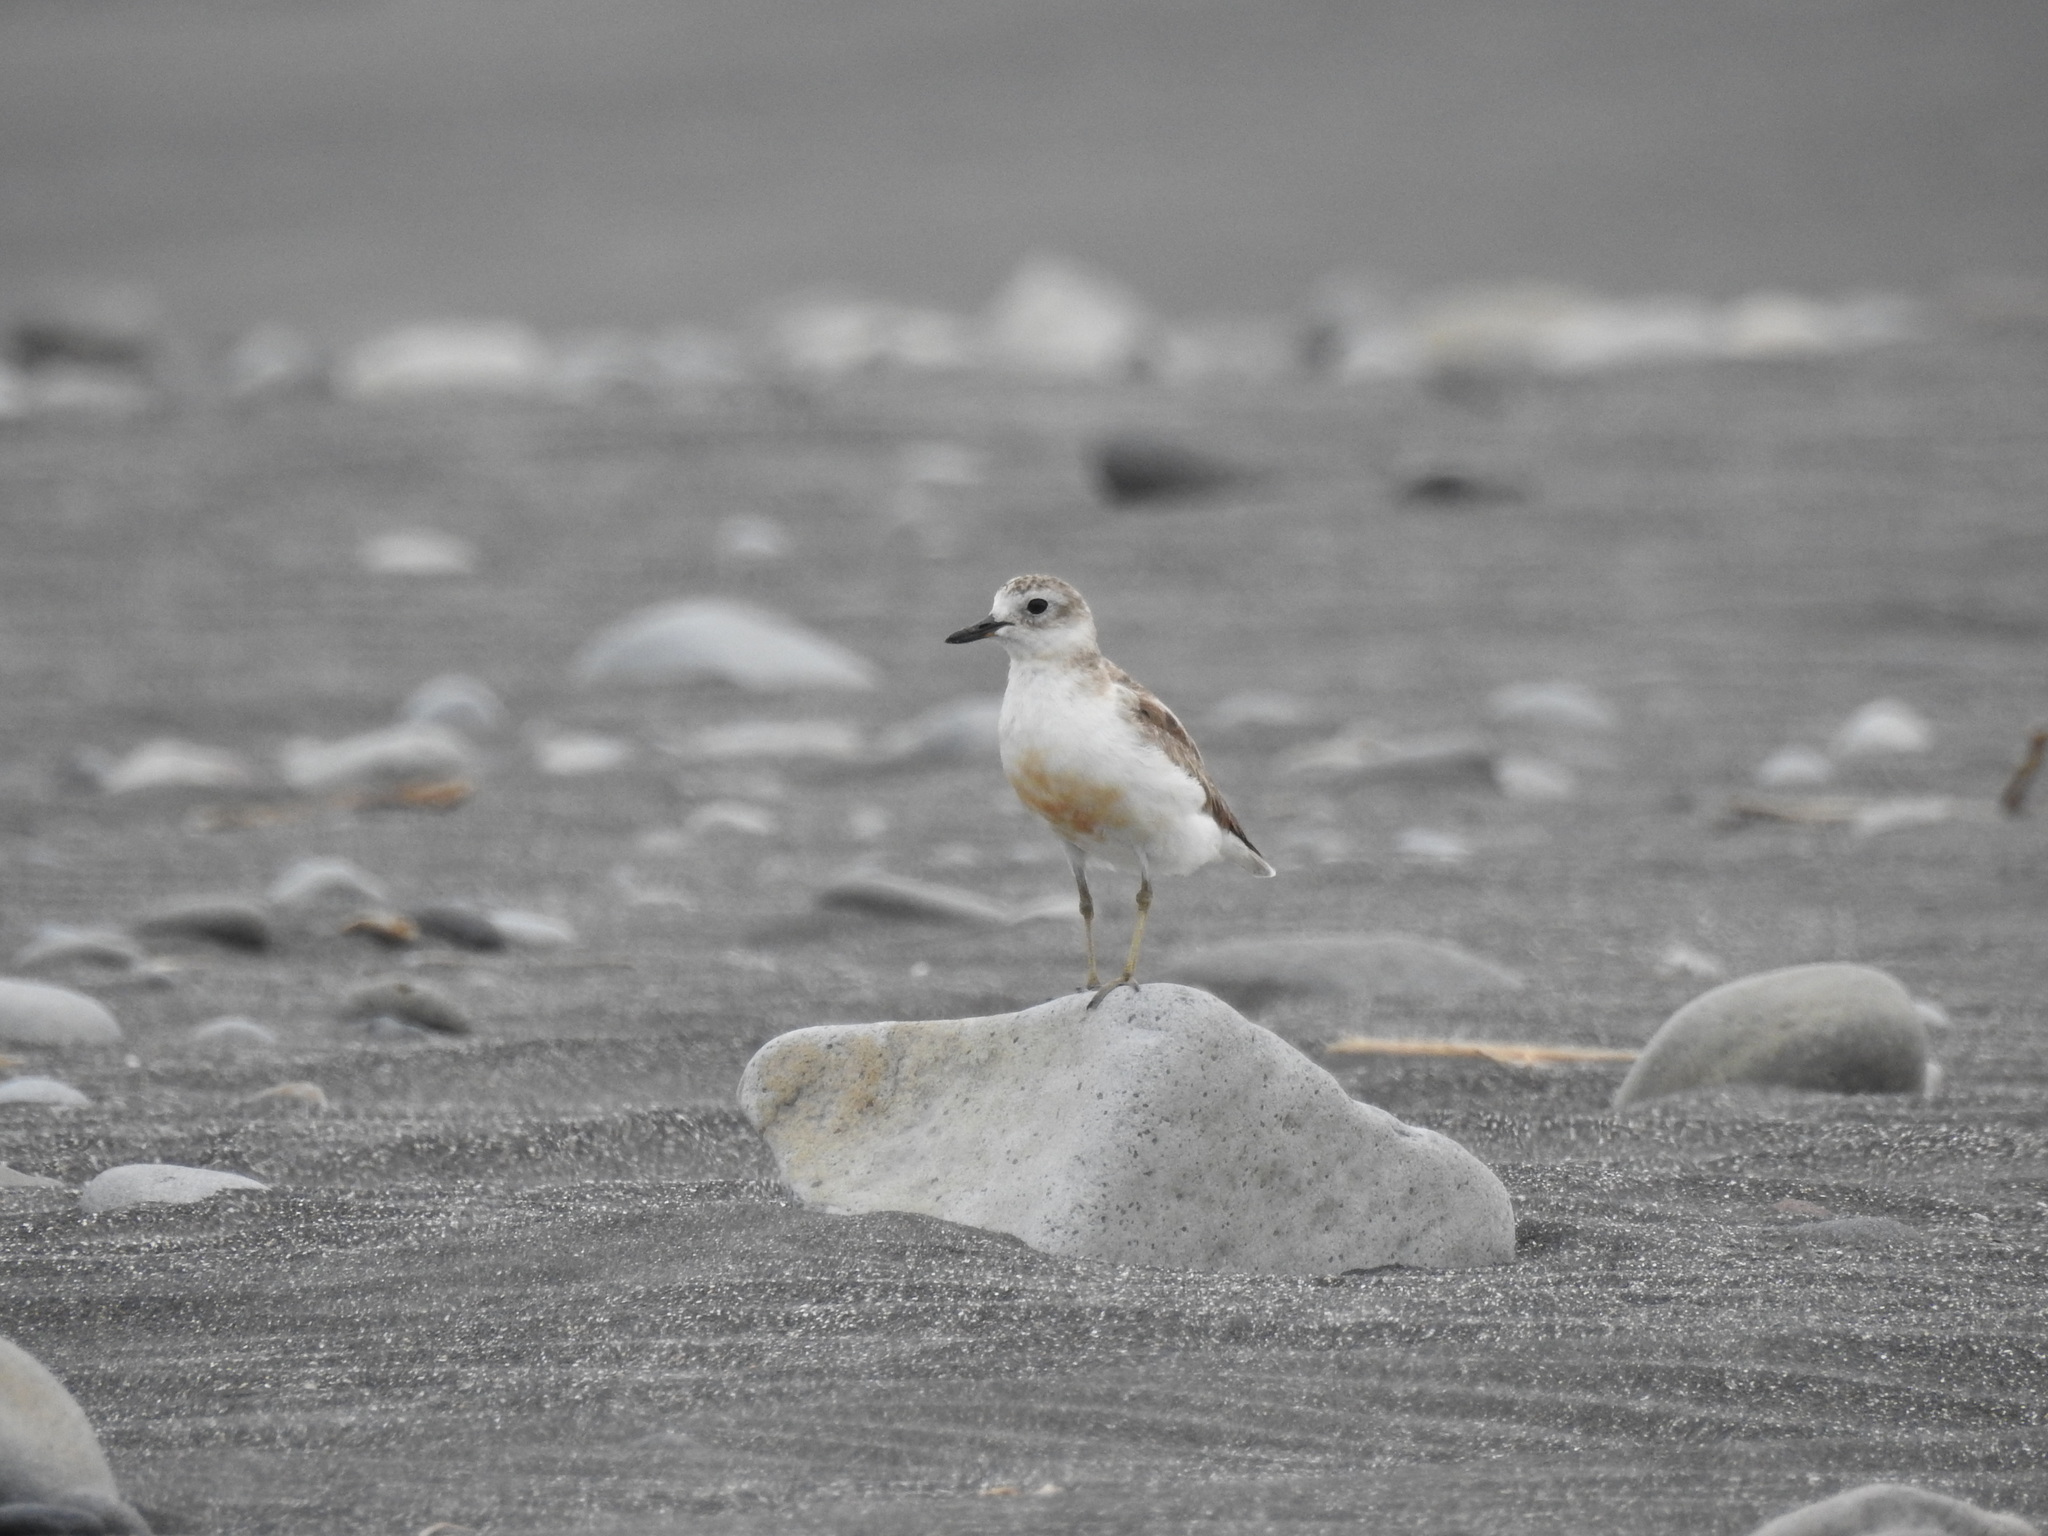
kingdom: Animalia
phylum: Chordata
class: Aves
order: Charadriiformes
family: Charadriidae
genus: Anarhynchus
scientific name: Anarhynchus
